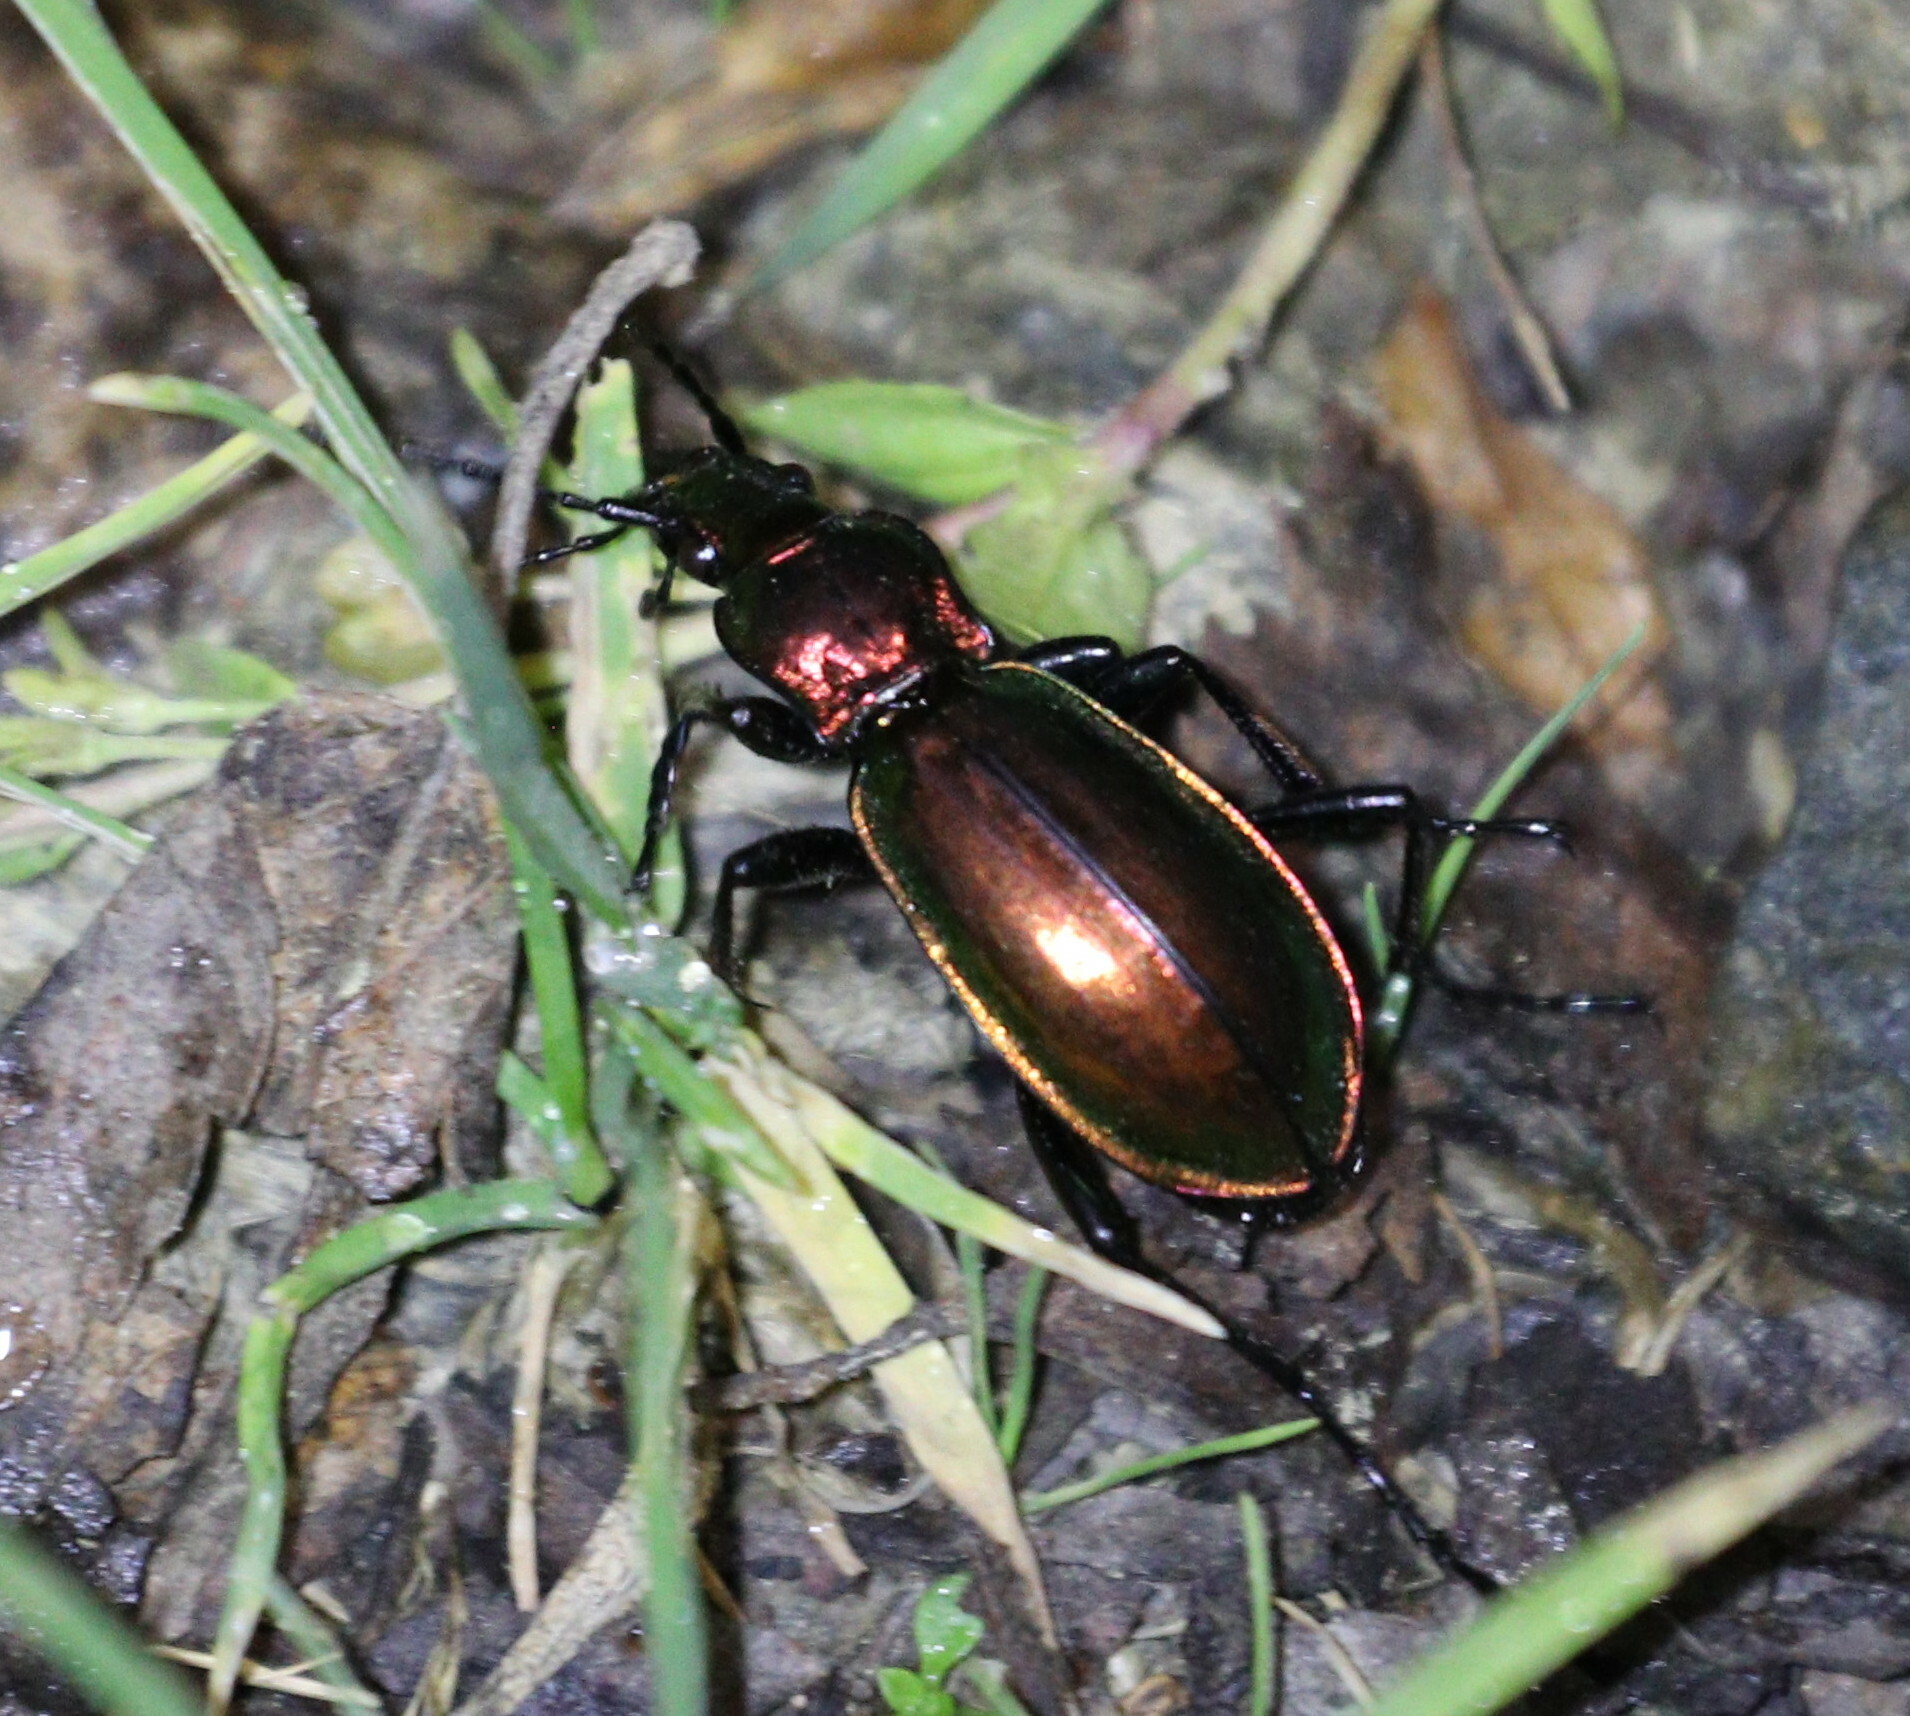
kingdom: Animalia
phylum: Arthropoda
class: Insecta
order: Coleoptera
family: Carabidae
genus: Carabus
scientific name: Carabus splendens
